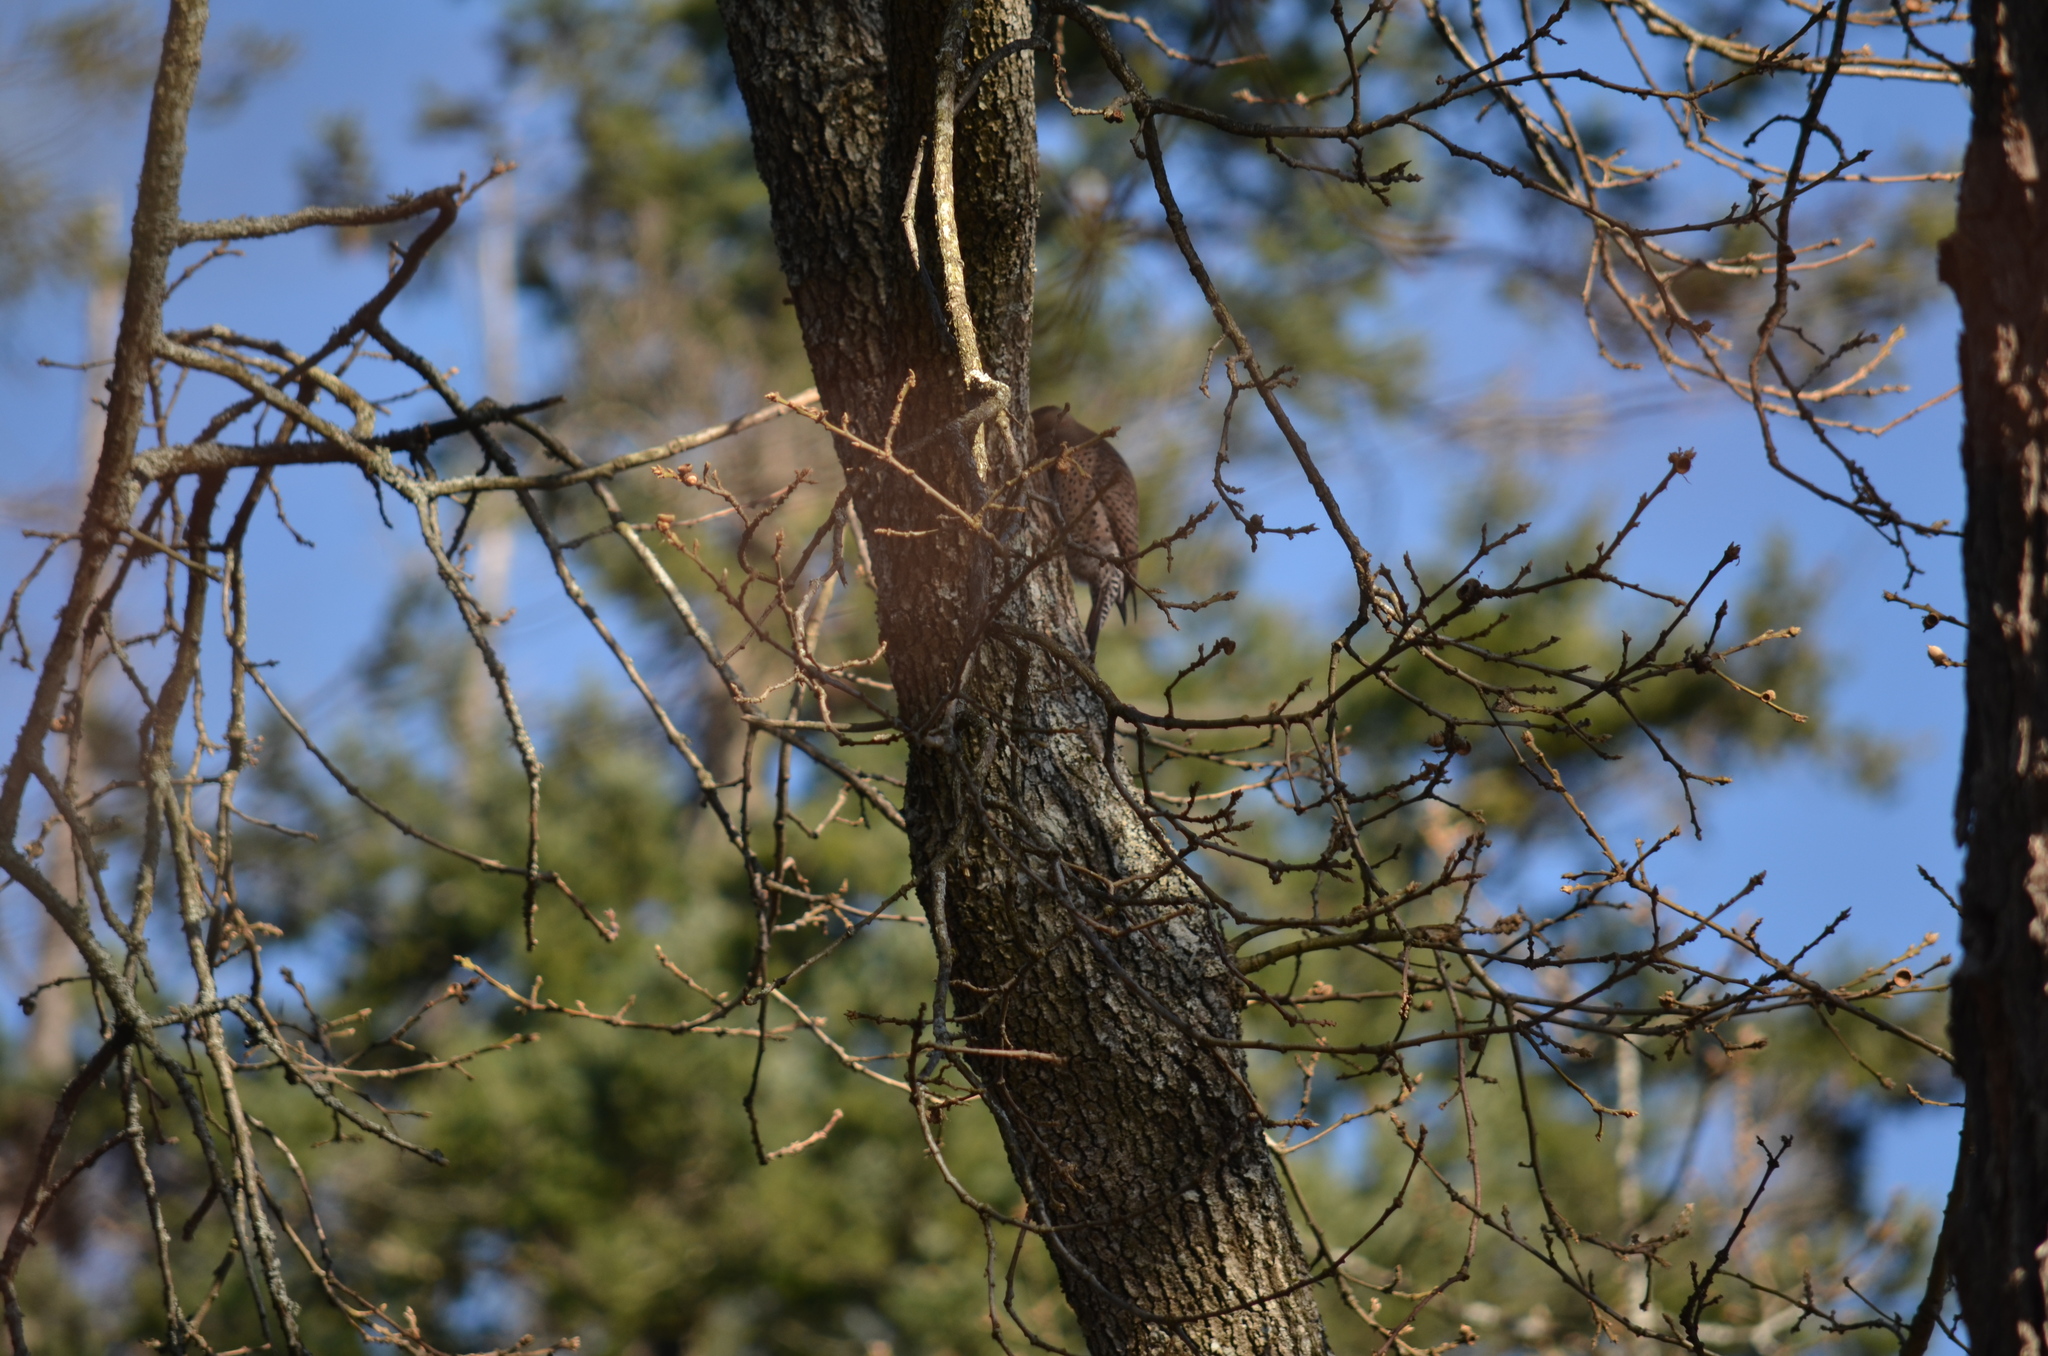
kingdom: Animalia
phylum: Chordata
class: Aves
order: Piciformes
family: Picidae
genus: Colaptes
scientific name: Colaptes auratus
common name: Northern flicker
